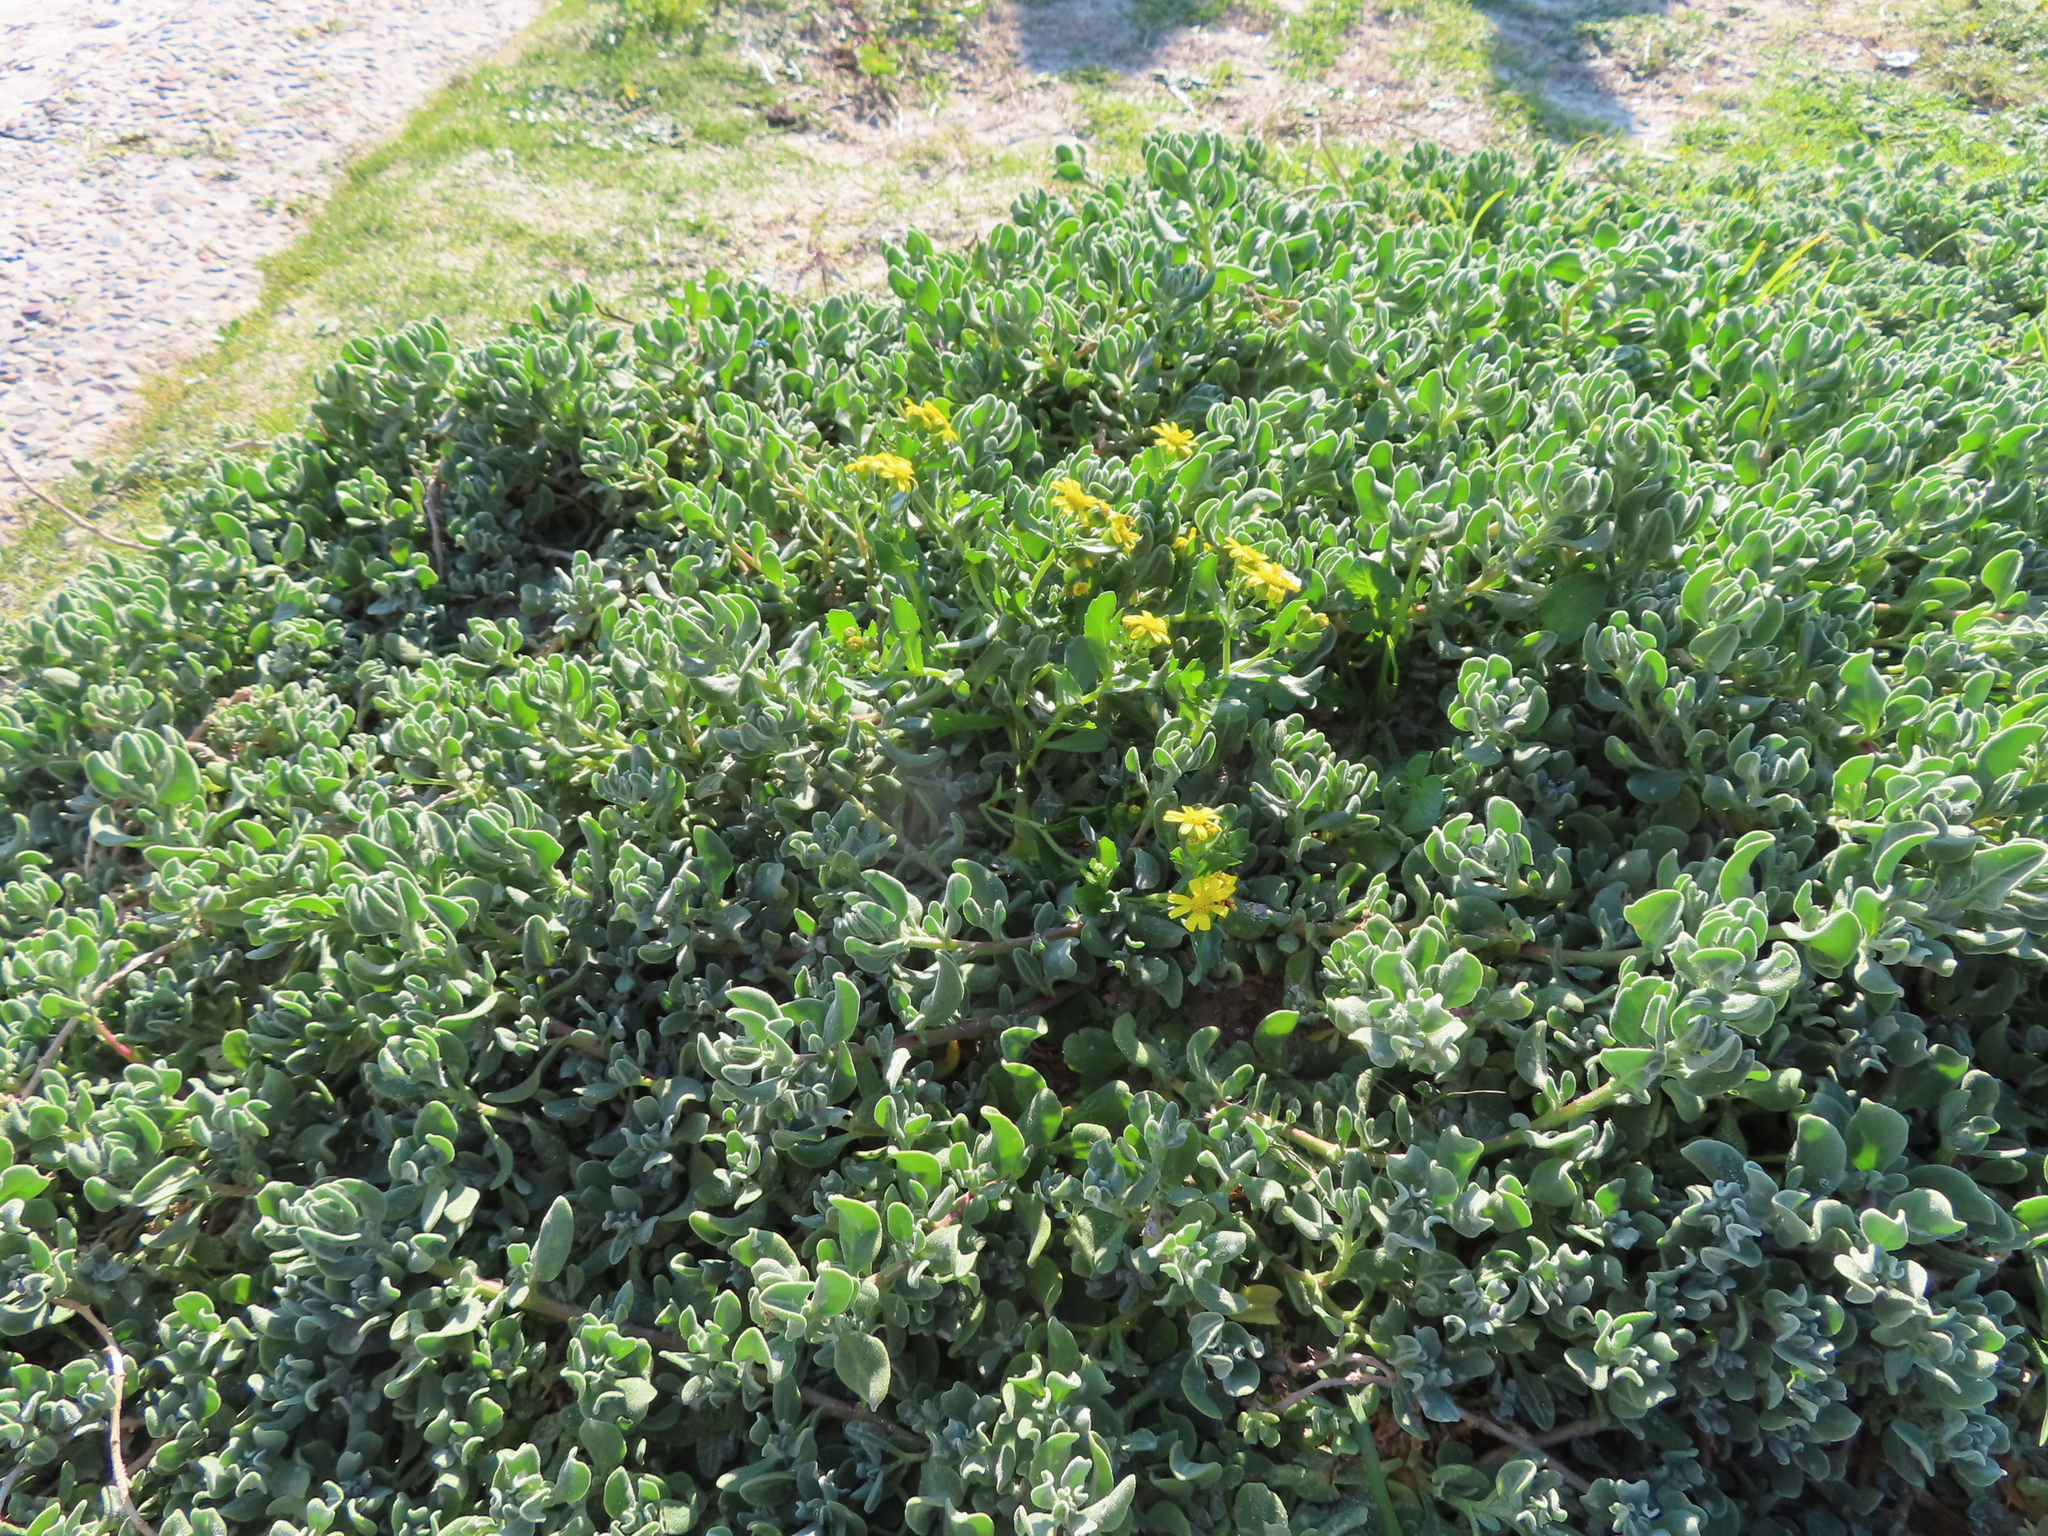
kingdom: Plantae
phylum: Tracheophyta
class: Magnoliopsida
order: Caryophyllales
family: Aizoaceae
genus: Tetragonia
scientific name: Tetragonia decumbens
